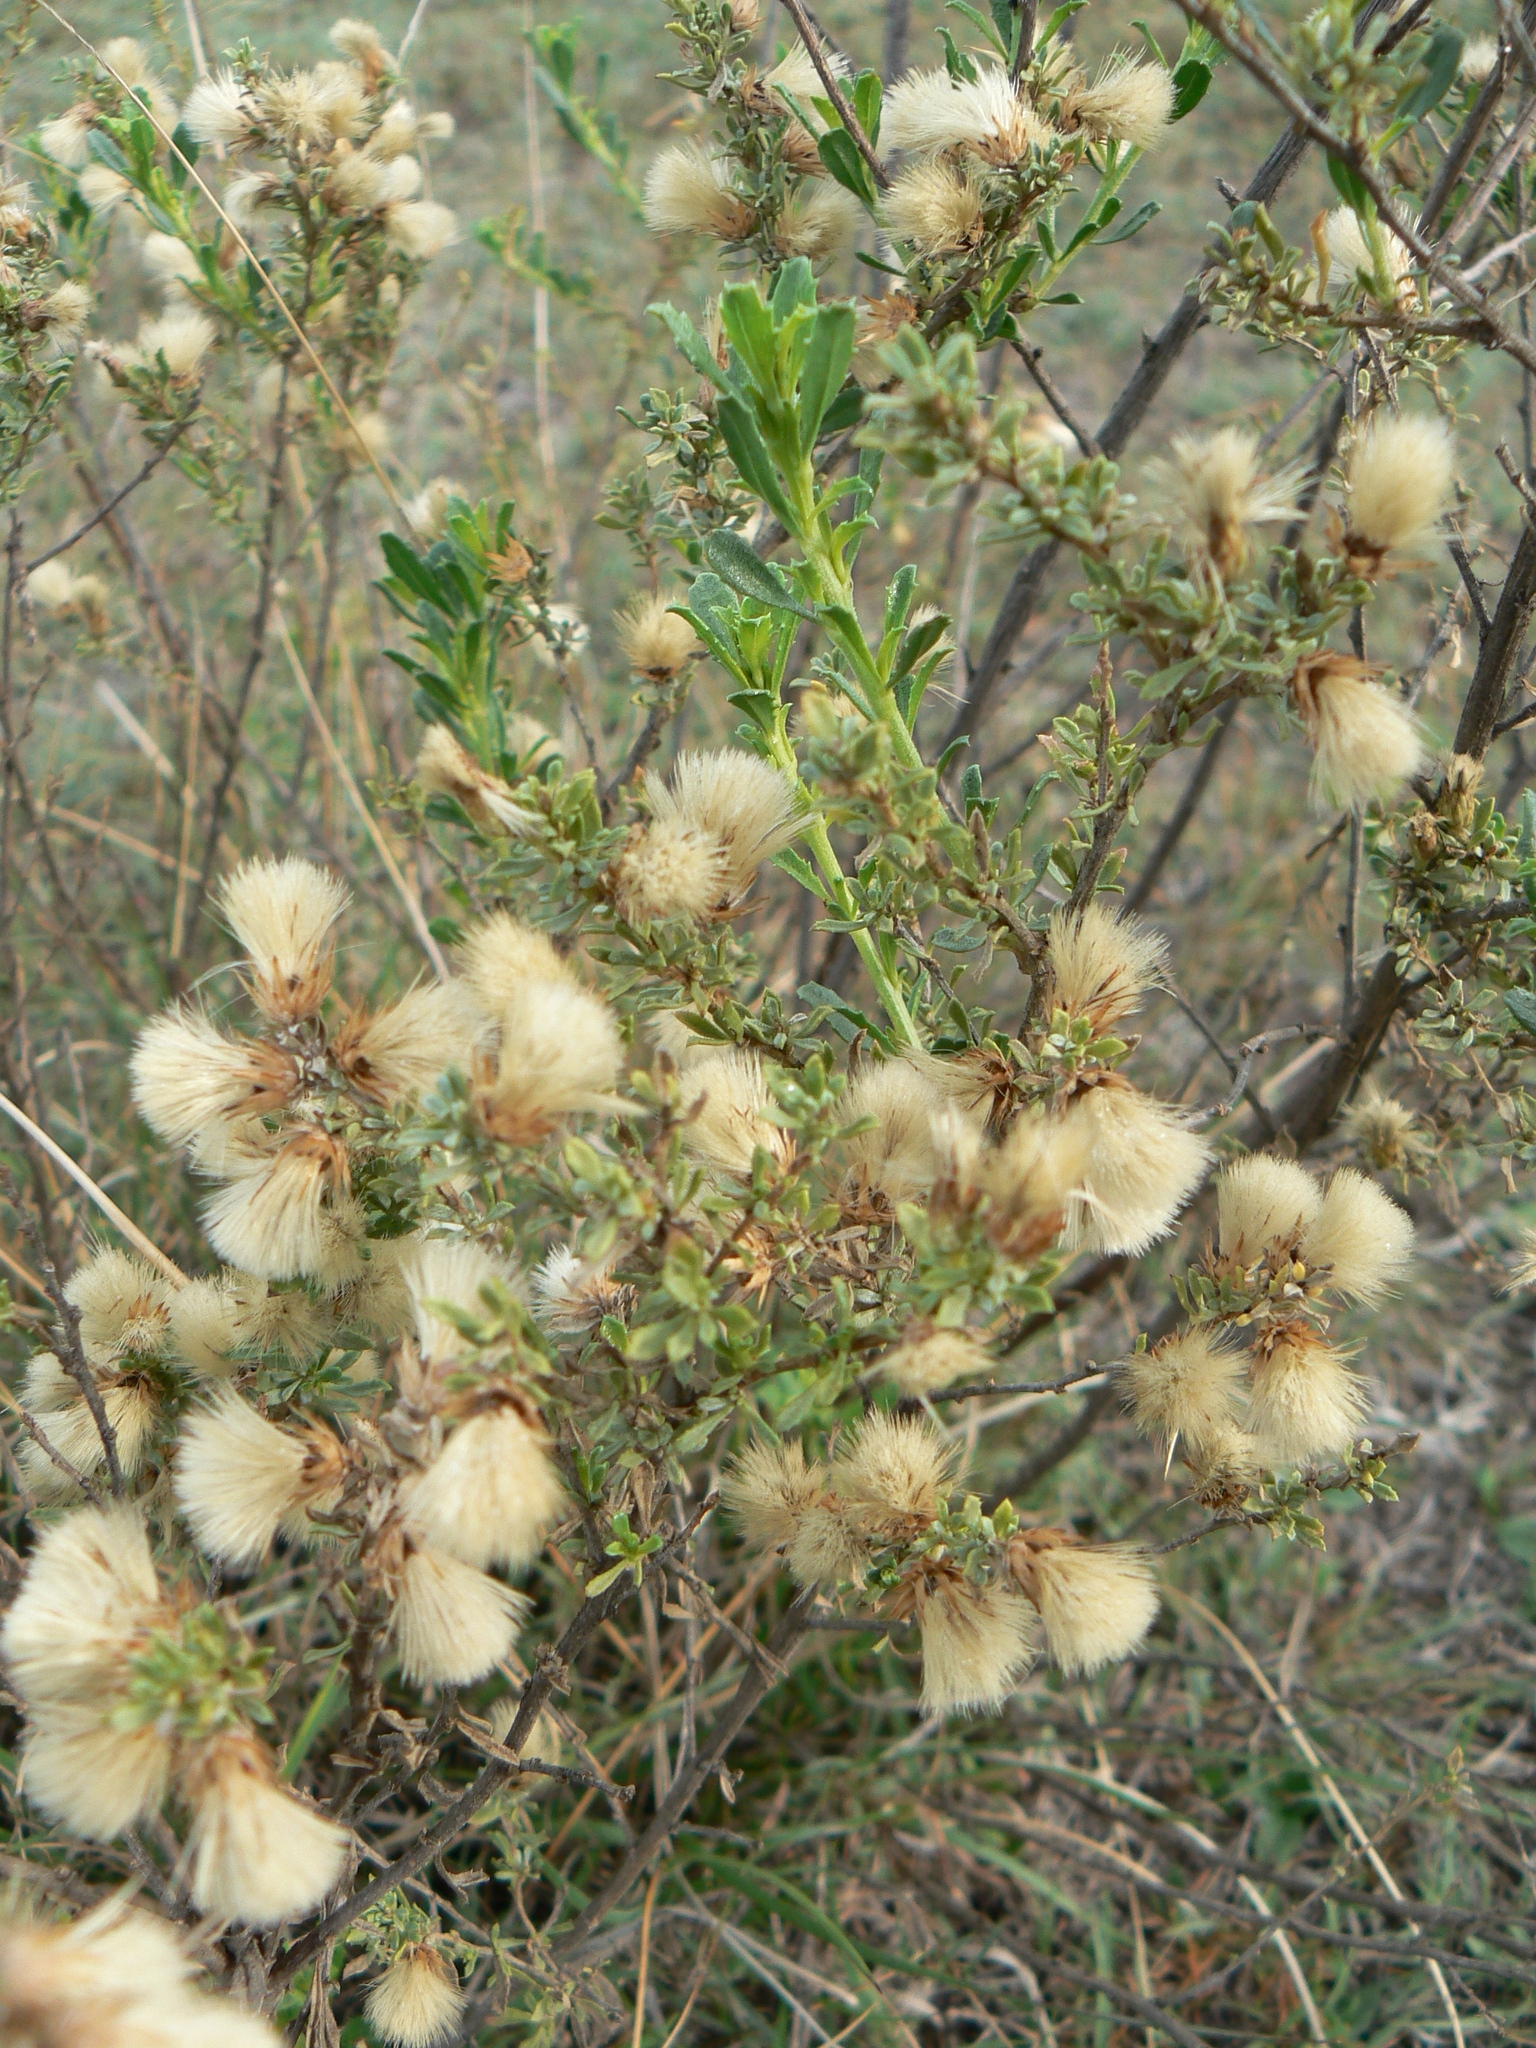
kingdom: Plantae
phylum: Tracheophyta
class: Magnoliopsida
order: Asterales
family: Asteraceae
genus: Baccharis
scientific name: Baccharis pteronioides
